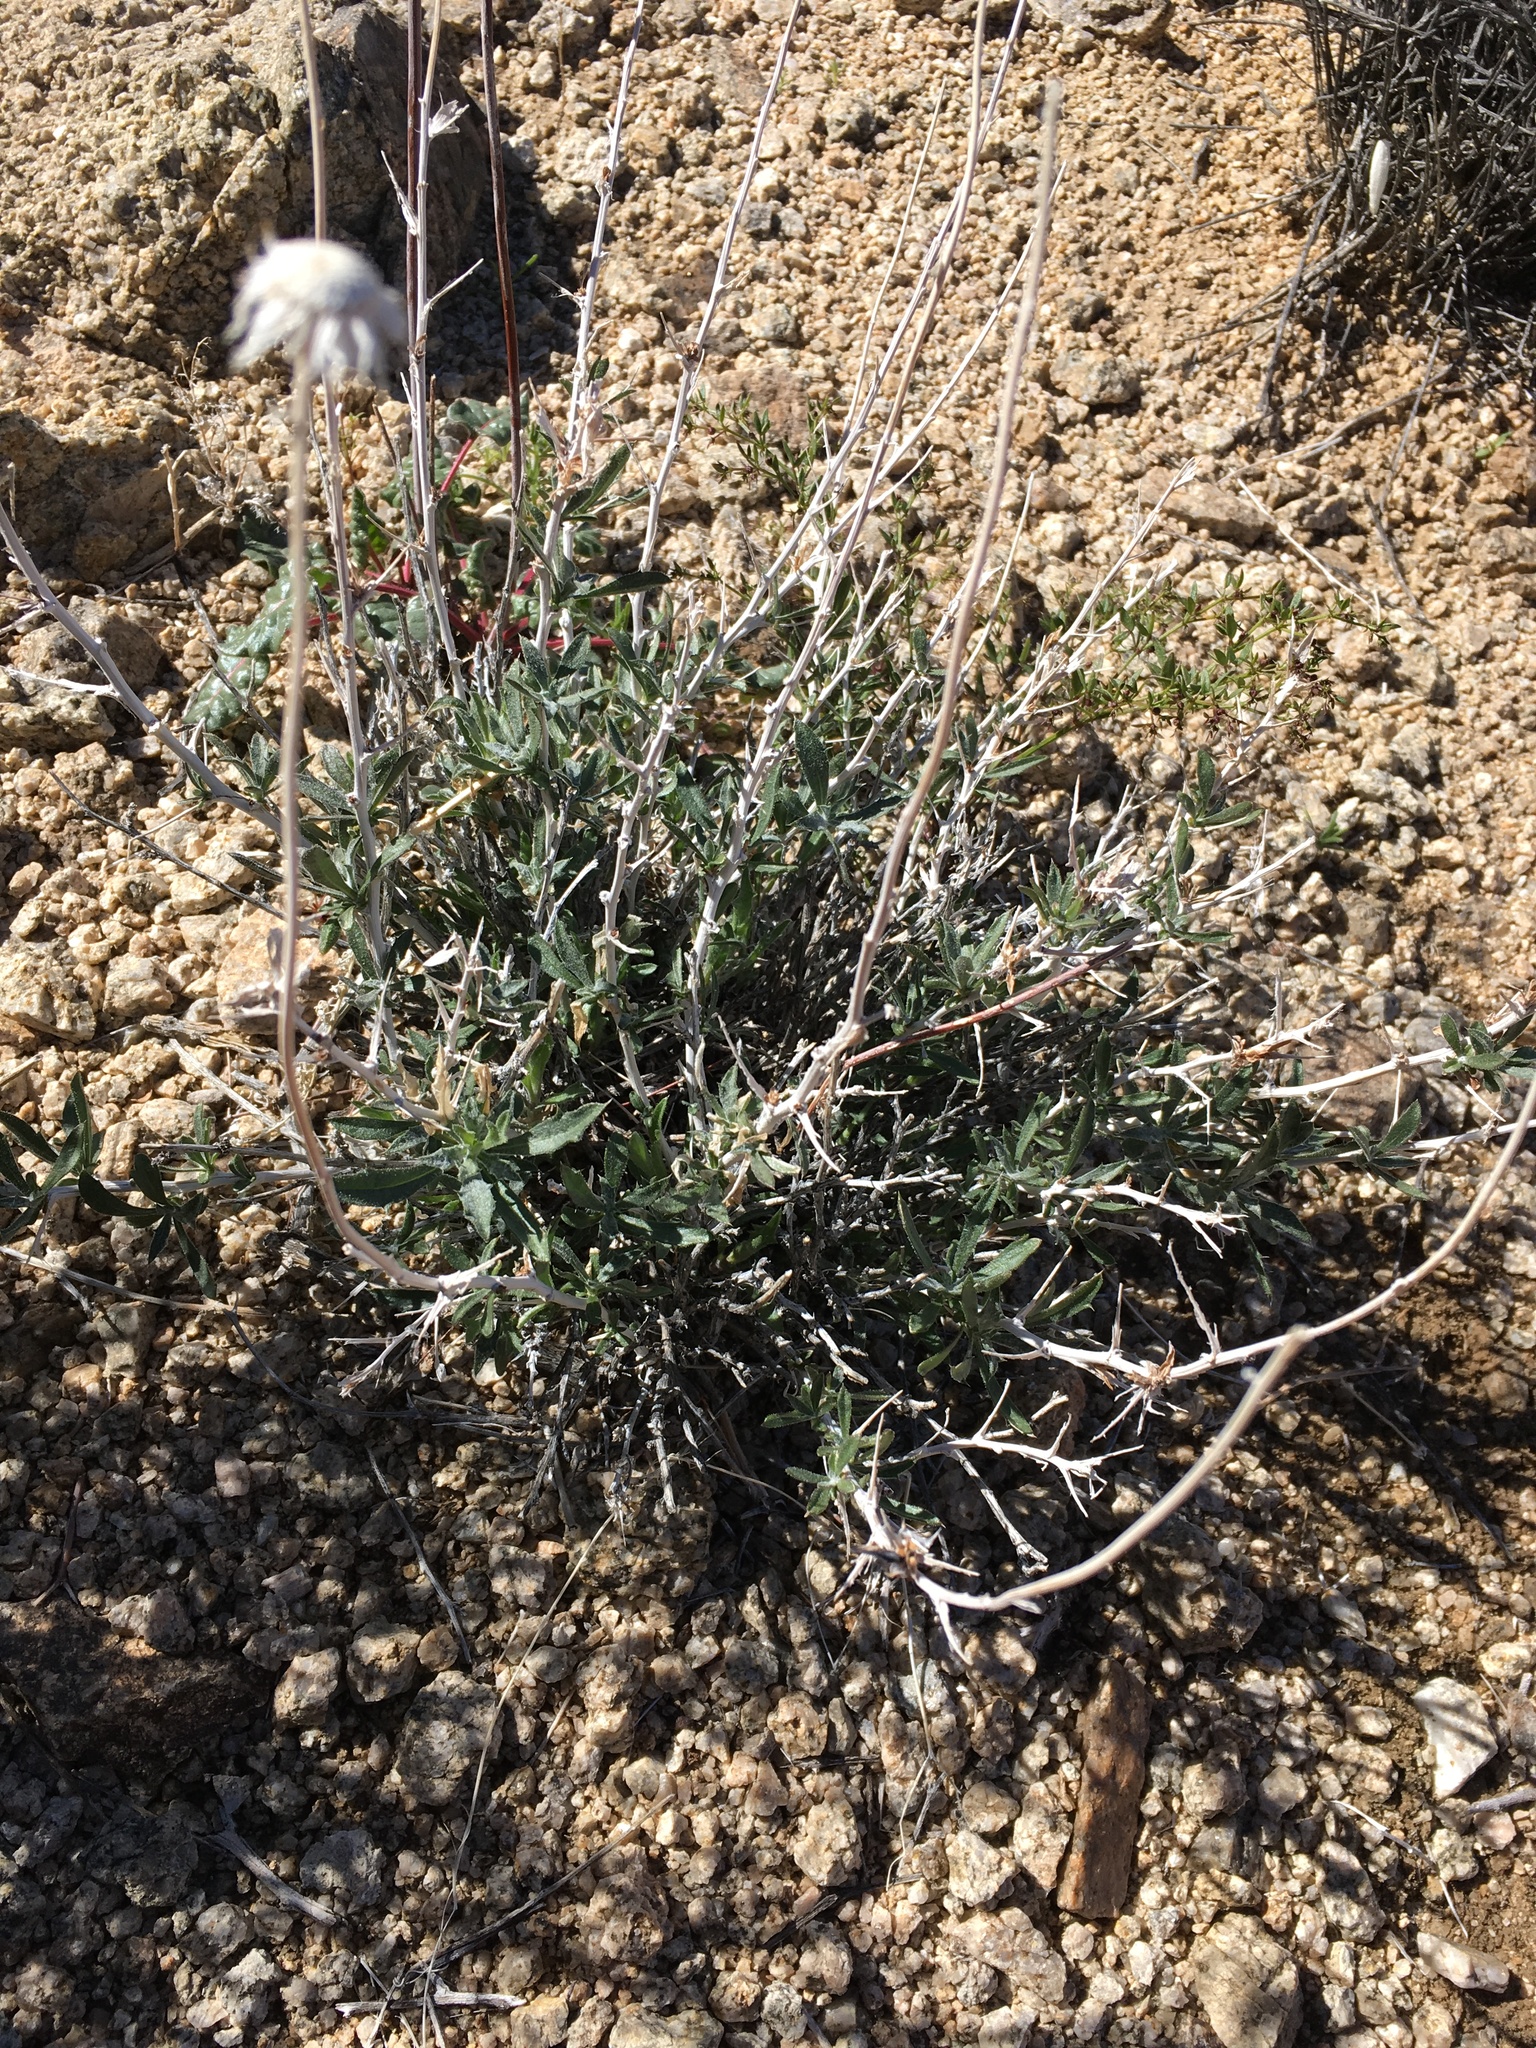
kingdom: Plantae
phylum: Tracheophyta
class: Magnoliopsida
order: Asterales
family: Asteraceae
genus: Xylorhiza
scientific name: Xylorhiza tortifolia
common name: Hurt-leaf woody-aster
